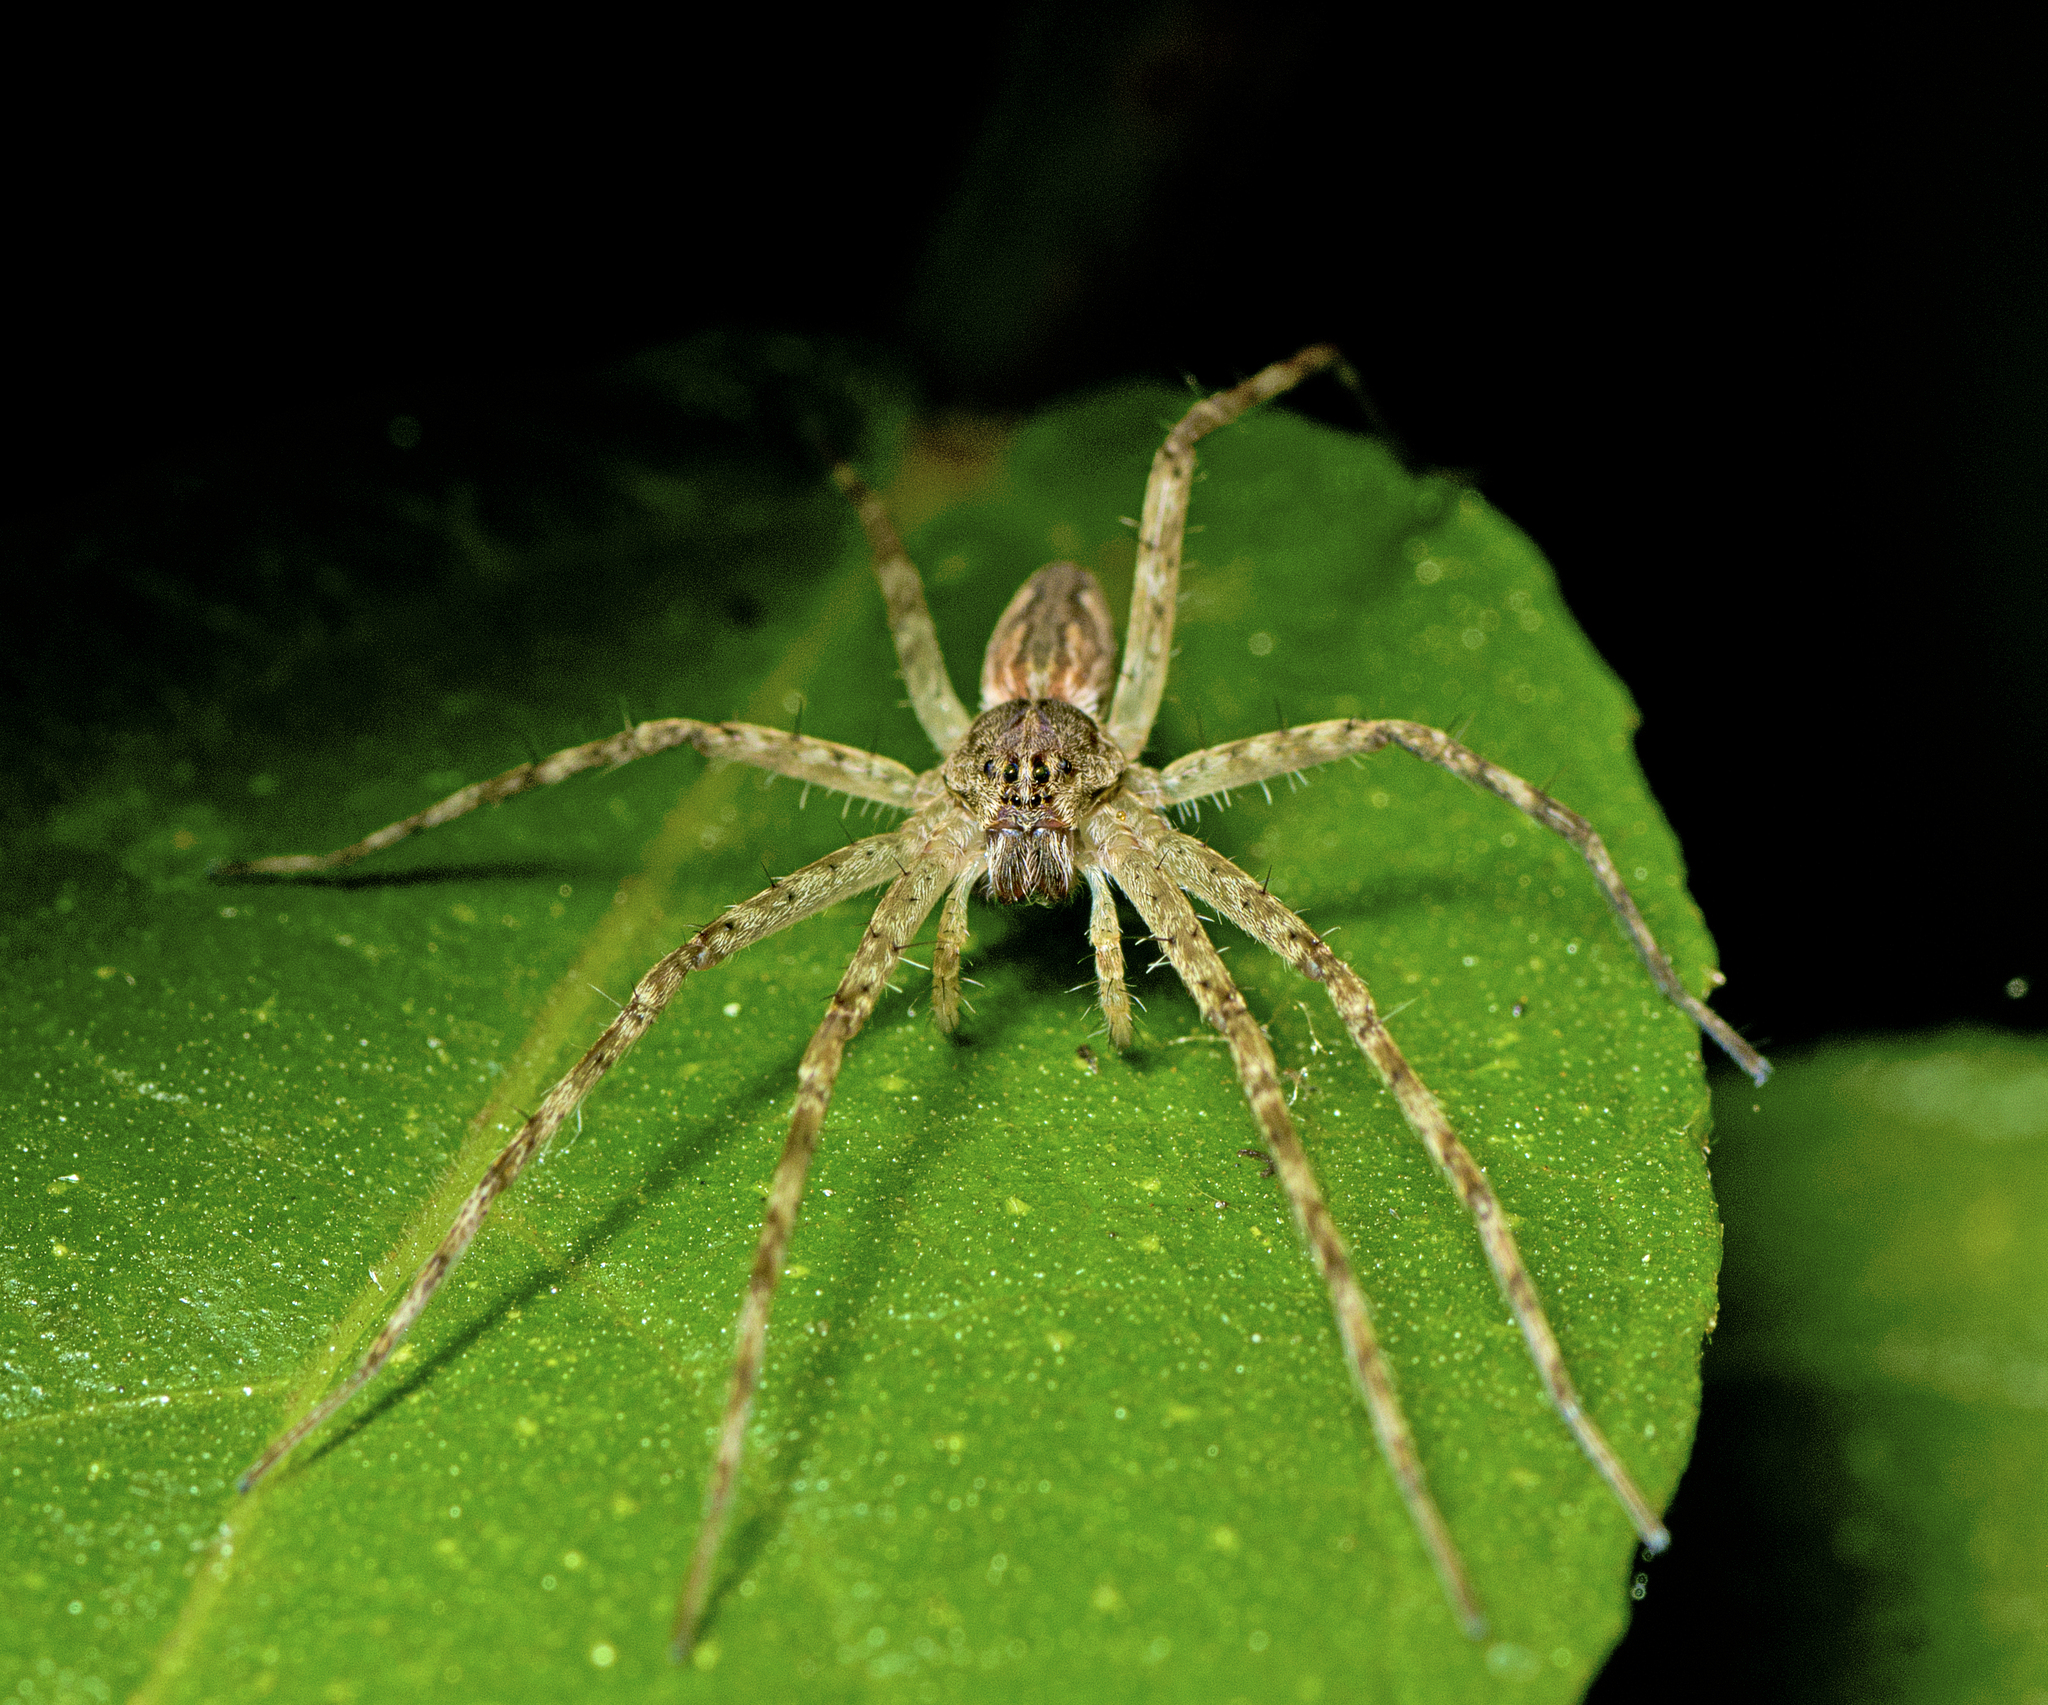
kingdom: Animalia
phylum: Arthropoda
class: Arachnida
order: Araneae
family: Pisauridae
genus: Megadolomedes
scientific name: Megadolomedes trux
